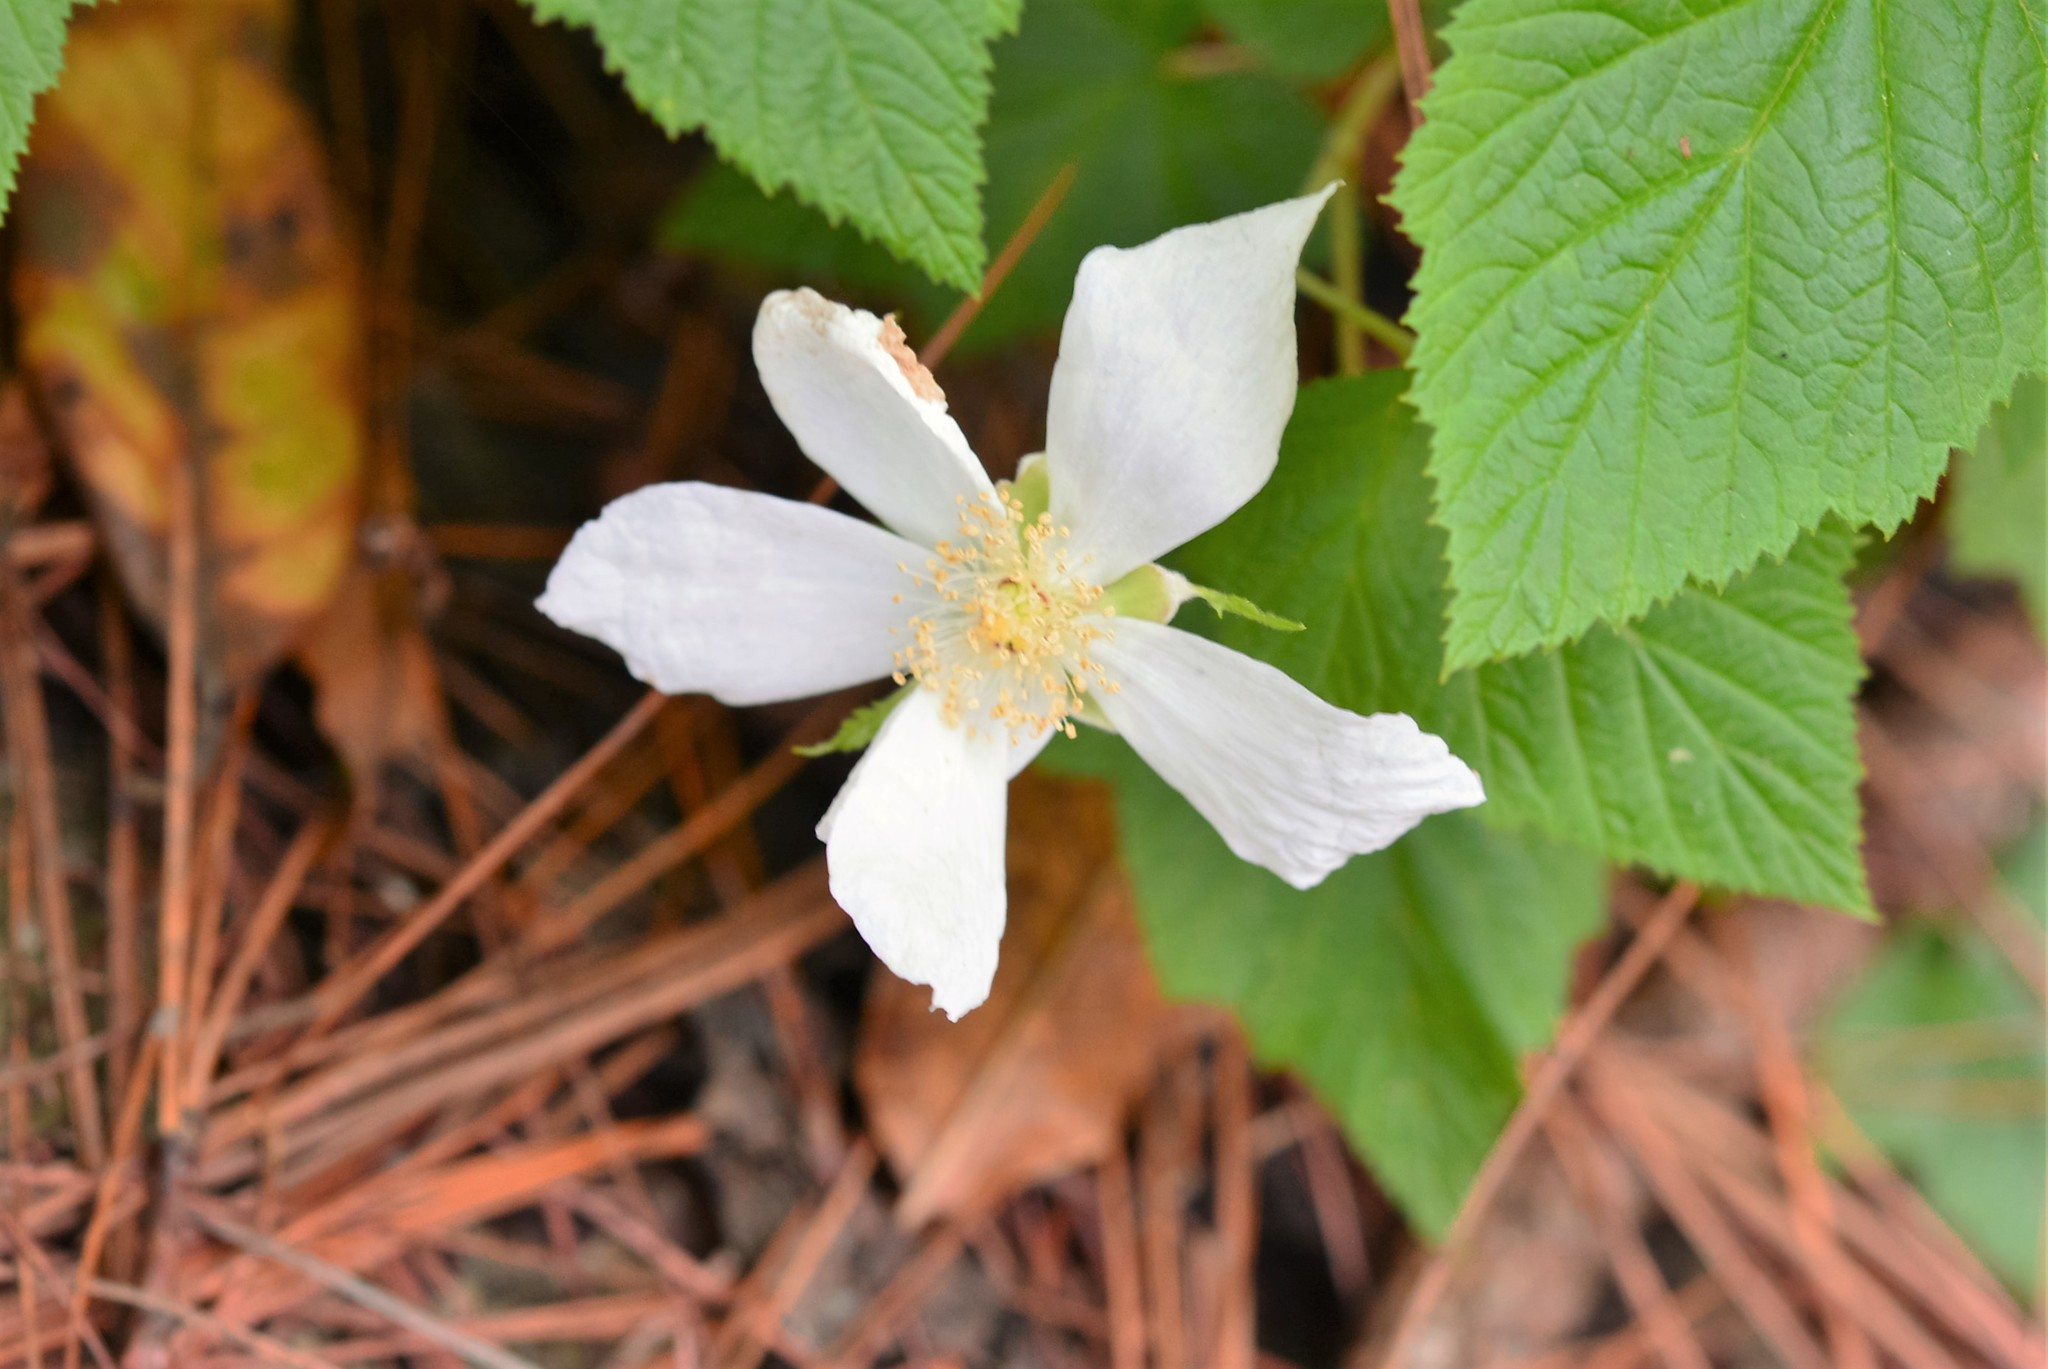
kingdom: Plantae
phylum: Tracheophyta
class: Magnoliopsida
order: Rosales
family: Rosaceae
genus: Rubus
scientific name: Rubus trilobus
